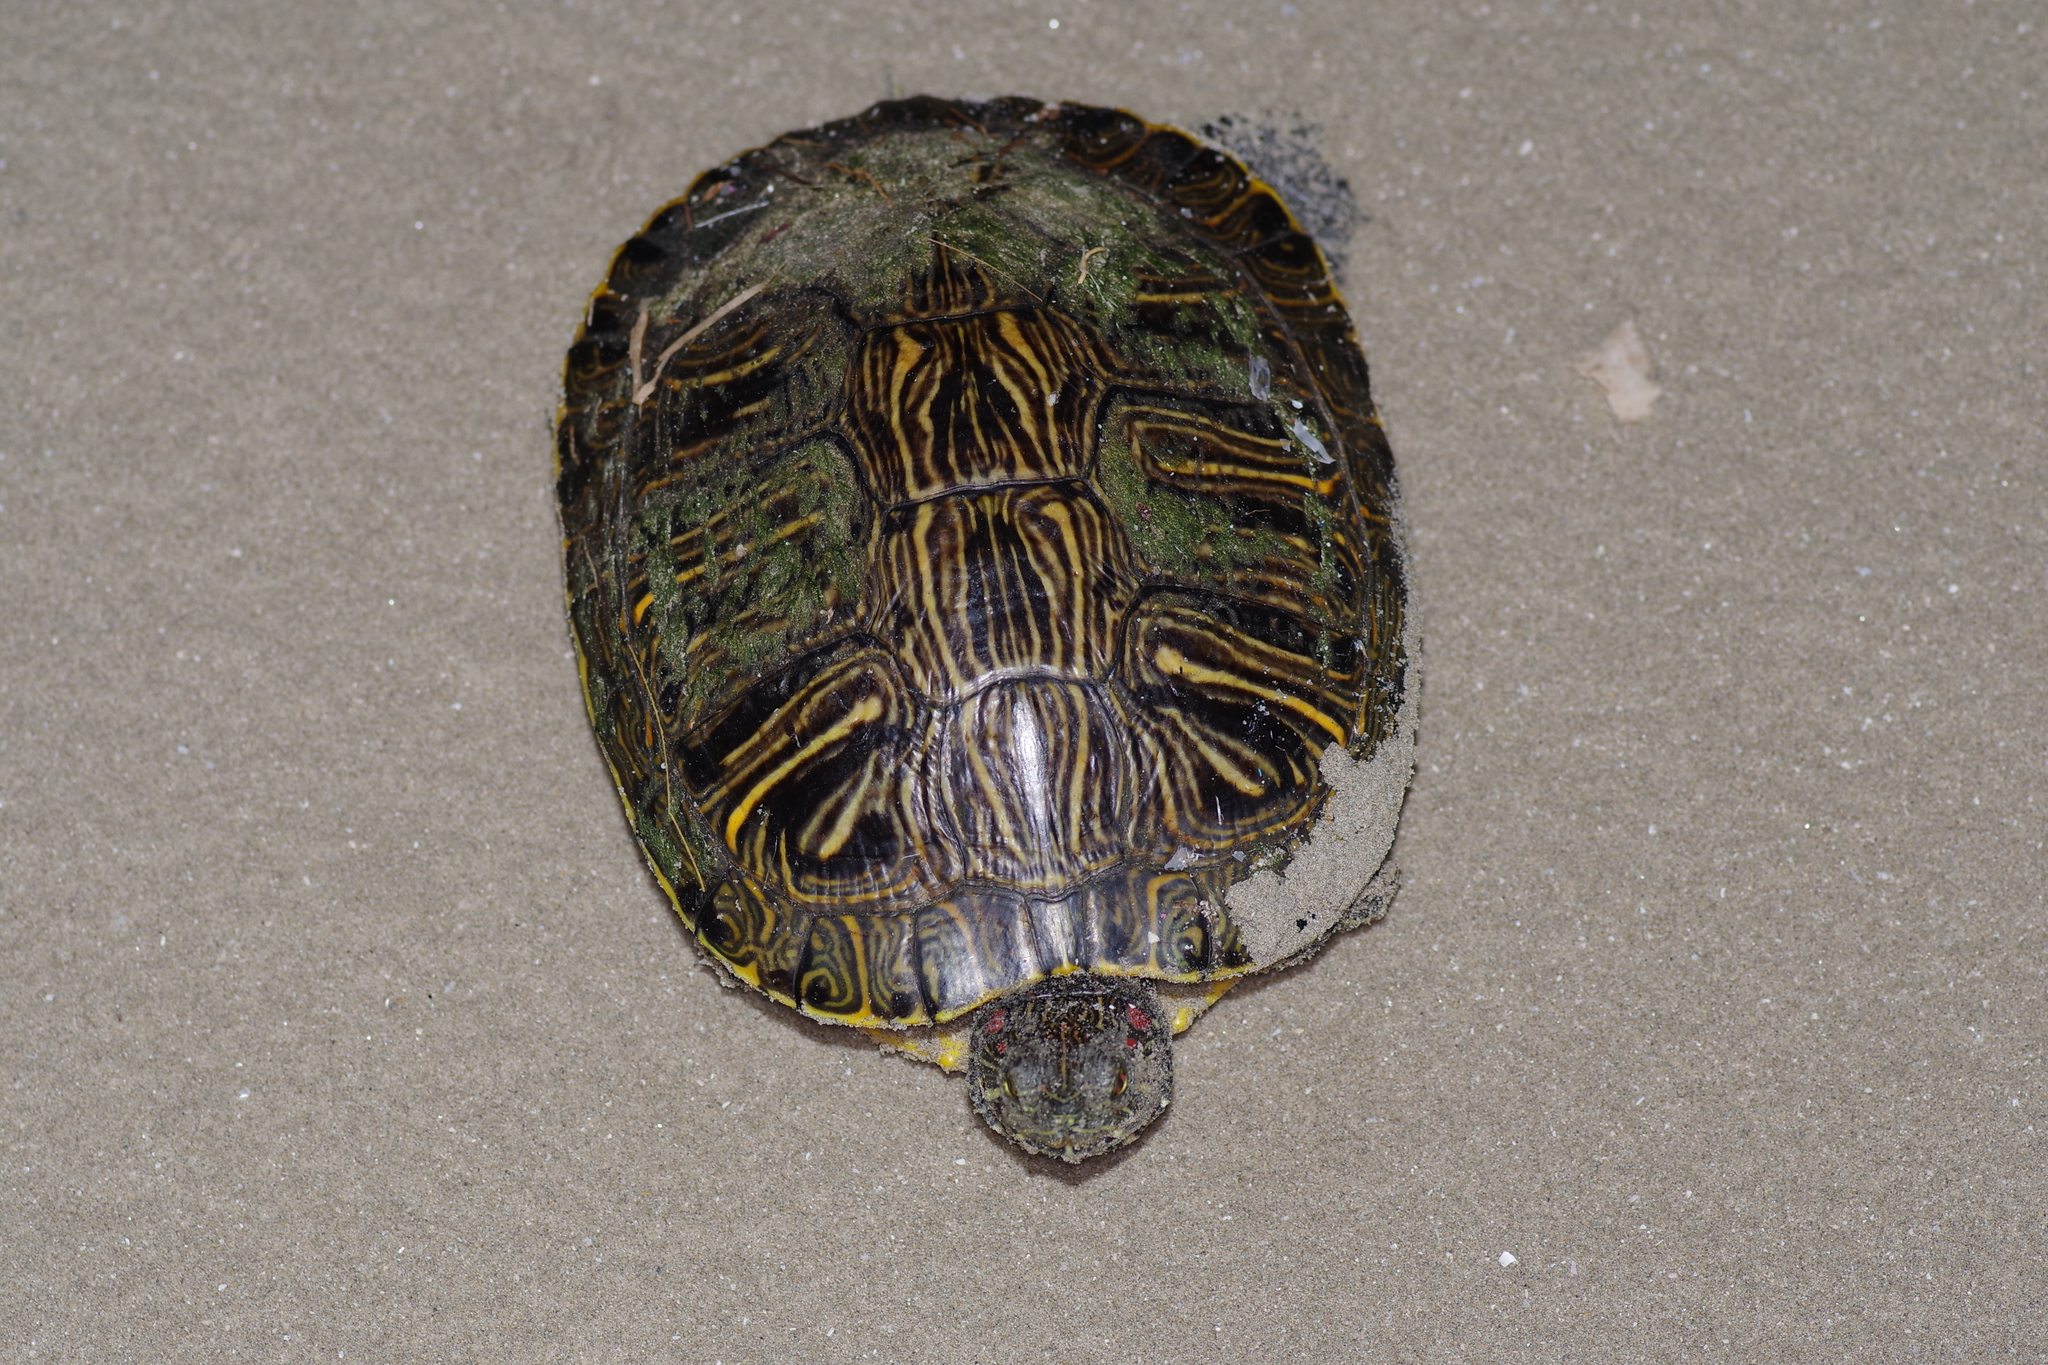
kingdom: Animalia
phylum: Chordata
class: Testudines
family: Emydidae
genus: Trachemys
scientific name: Trachemys scripta
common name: Slider
